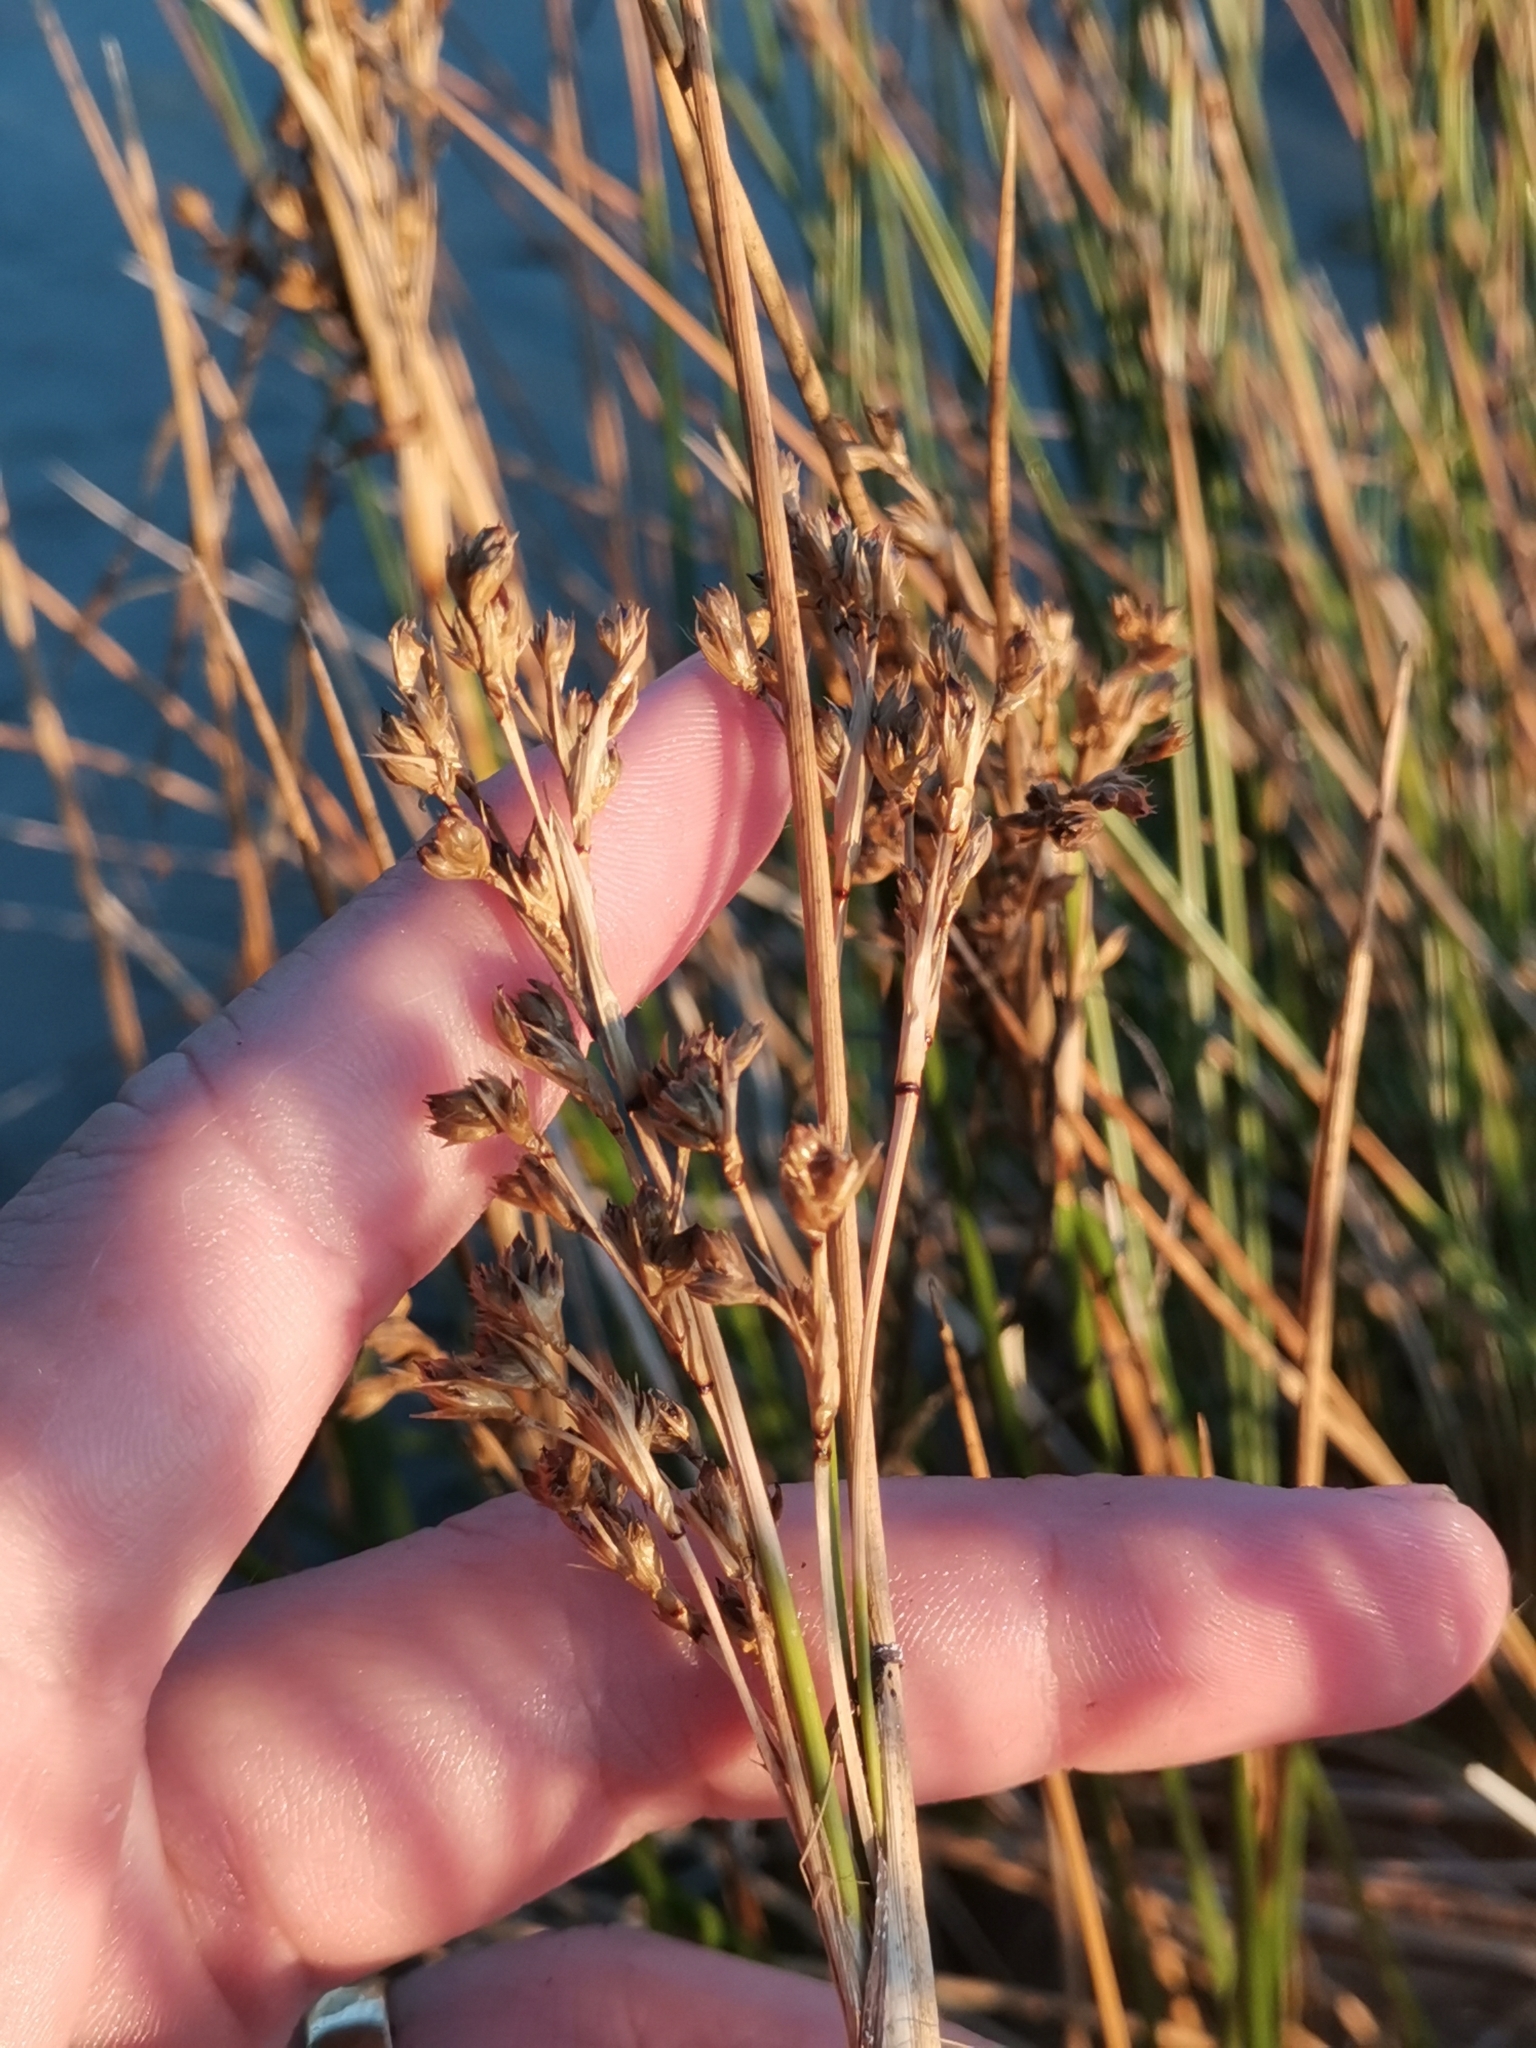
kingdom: Plantae
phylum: Tracheophyta
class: Liliopsida
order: Poales
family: Juncaceae
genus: Juncus
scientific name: Juncus maritimus
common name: Sea rush
